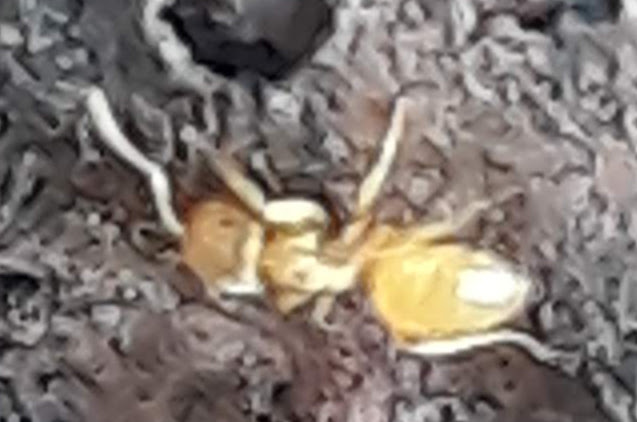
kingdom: Animalia
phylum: Arthropoda
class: Insecta
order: Hymenoptera
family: Formicidae
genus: Cautolasius
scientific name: Cautolasius
